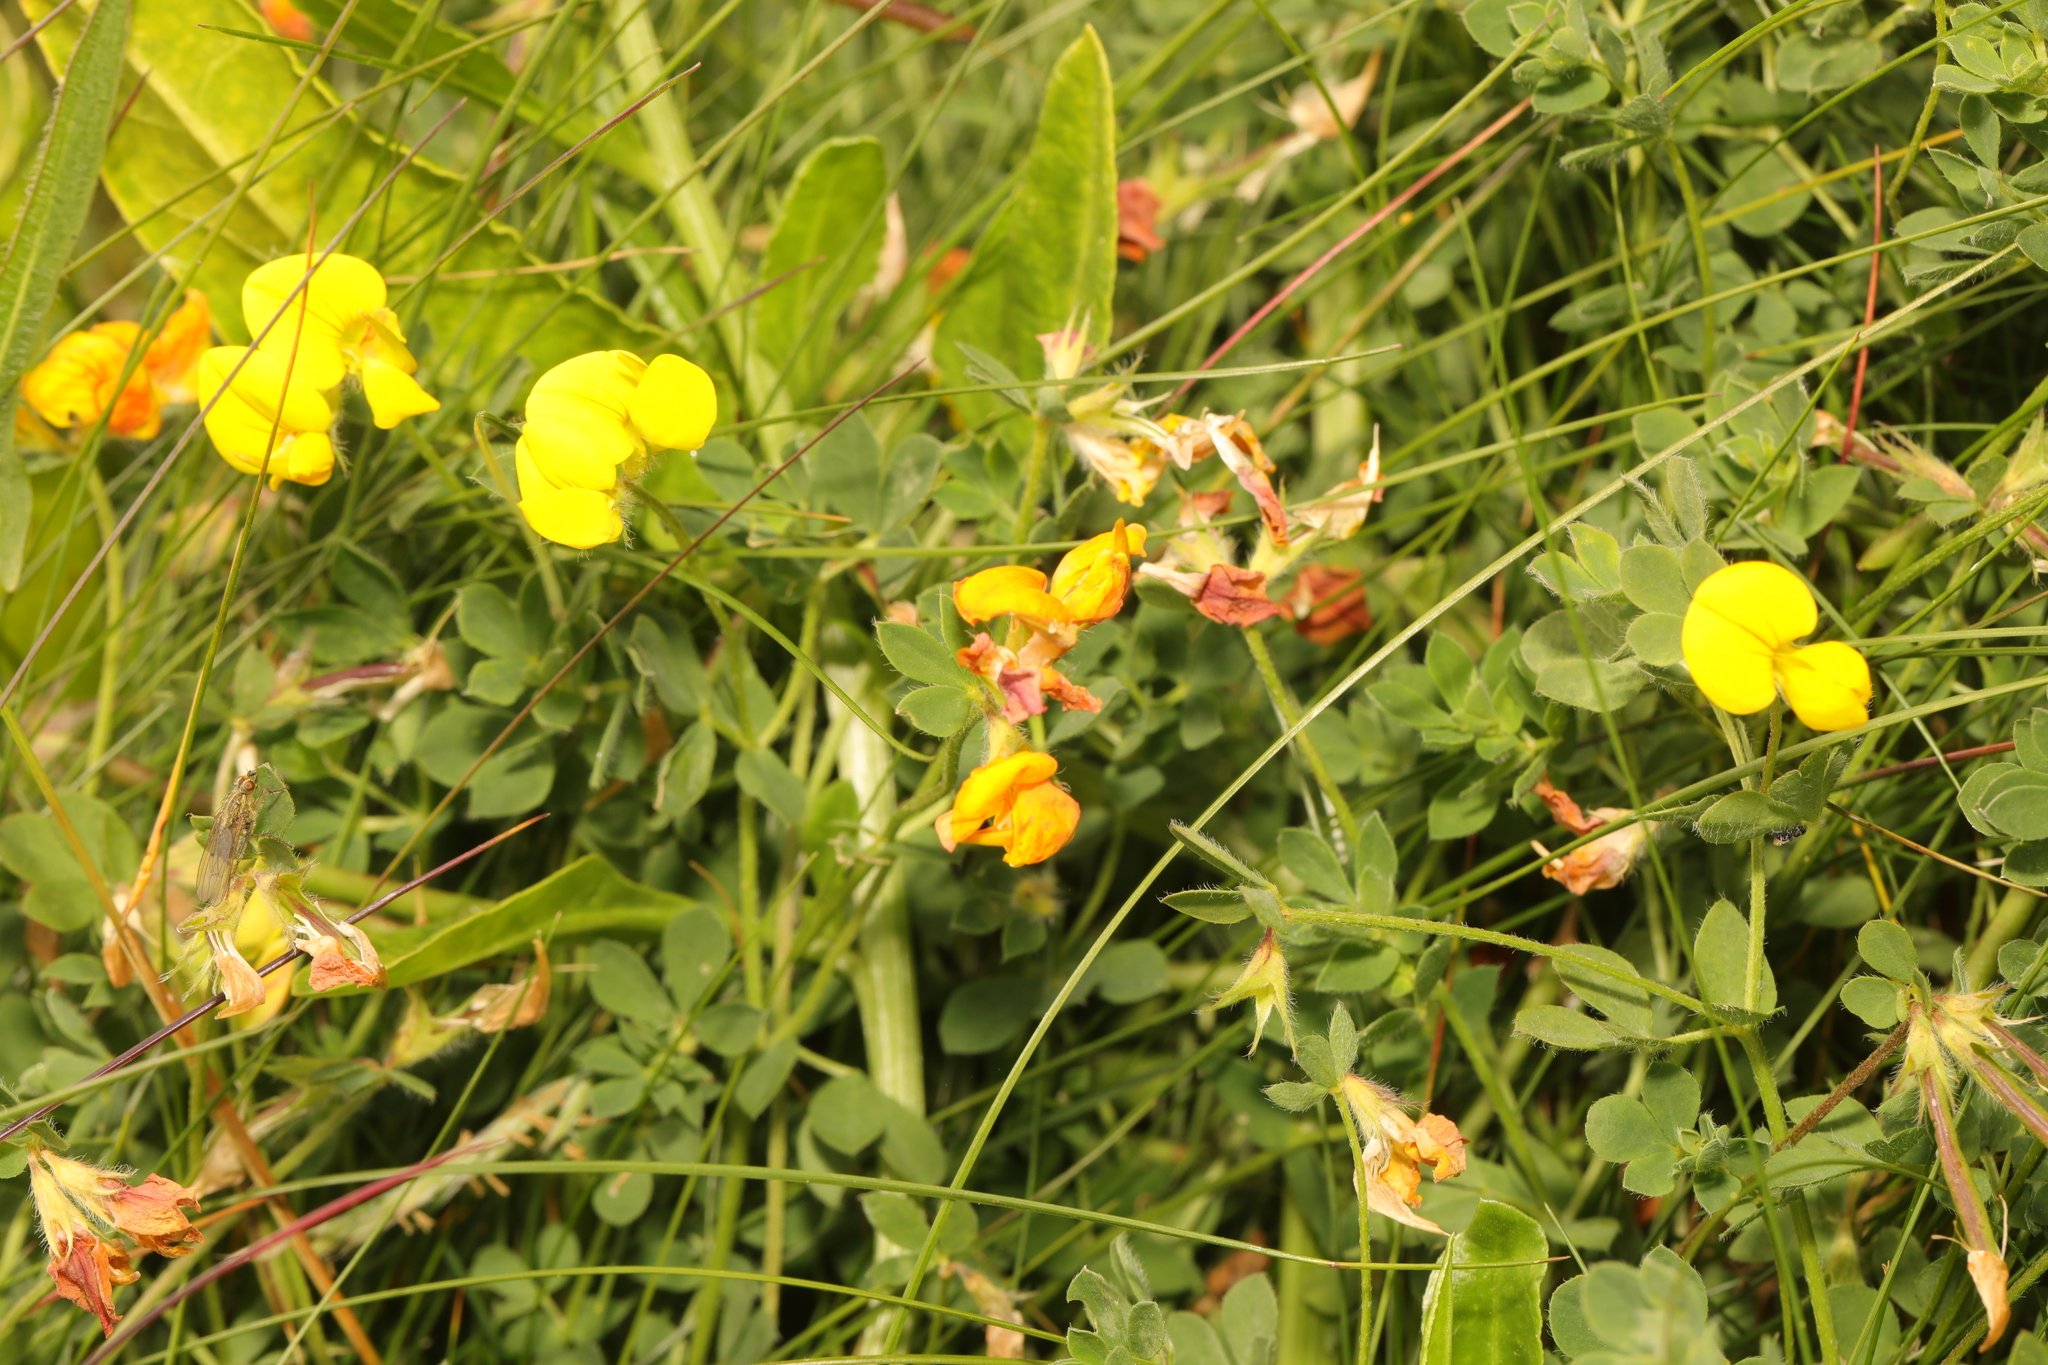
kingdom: Plantae
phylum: Tracheophyta
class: Magnoliopsida
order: Fabales
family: Fabaceae
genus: Lotus
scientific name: Lotus corniculatus
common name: Common bird's-foot-trefoil
